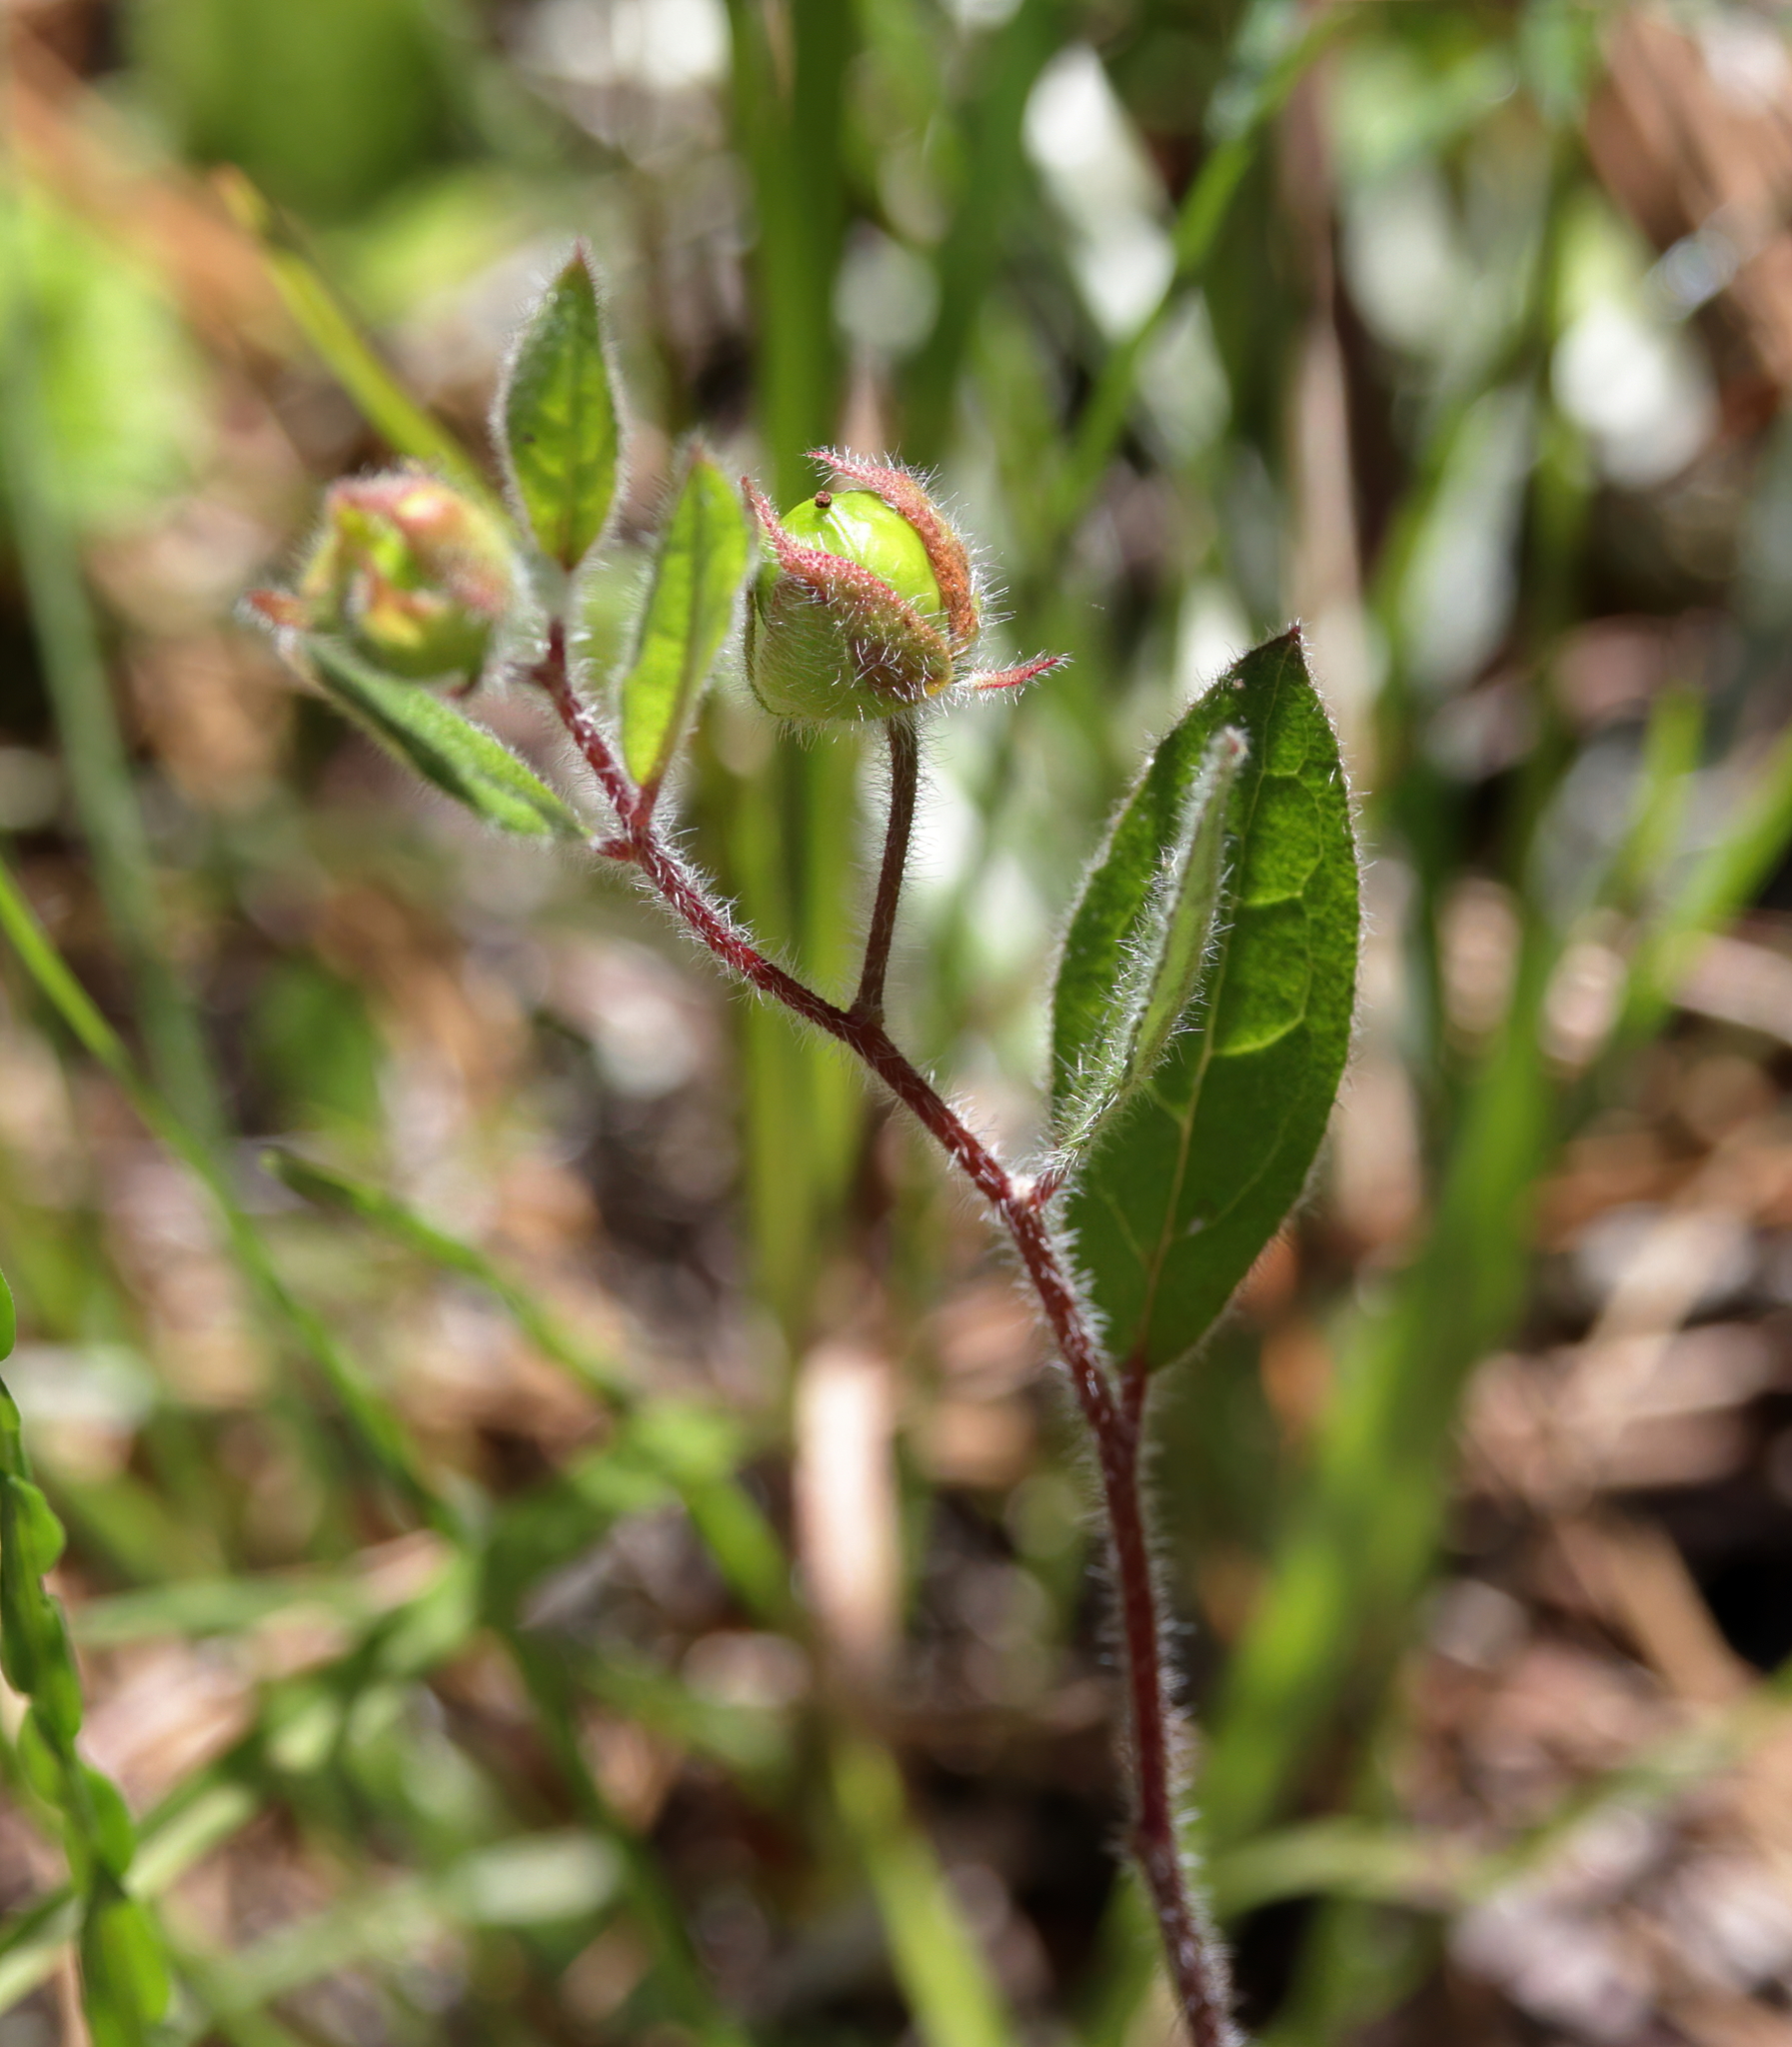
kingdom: Plantae
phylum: Tracheophyta
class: Magnoliopsida
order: Malvales
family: Cistaceae
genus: Crocanthemum
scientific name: Crocanthemum carolinianum
